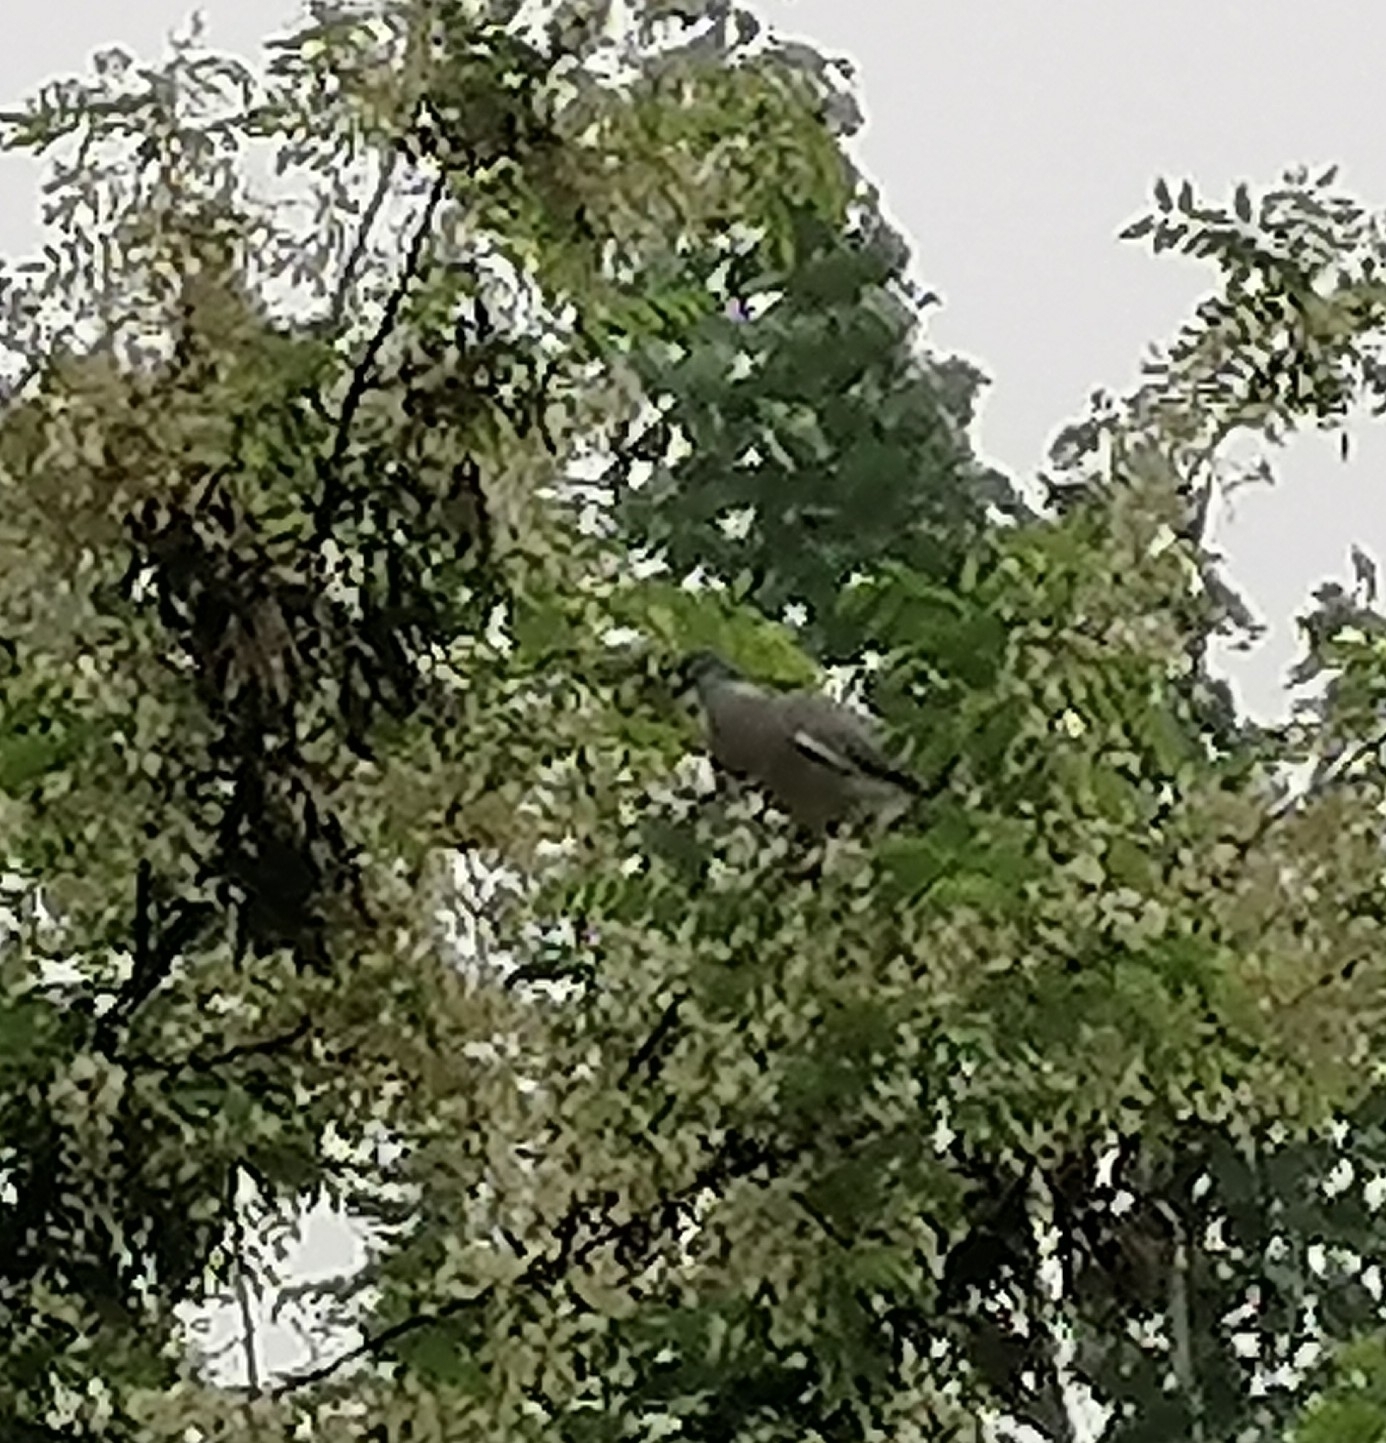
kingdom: Animalia
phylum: Chordata
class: Aves
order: Columbiformes
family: Columbidae
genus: Columba
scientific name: Columba palumbus
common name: Common wood pigeon
